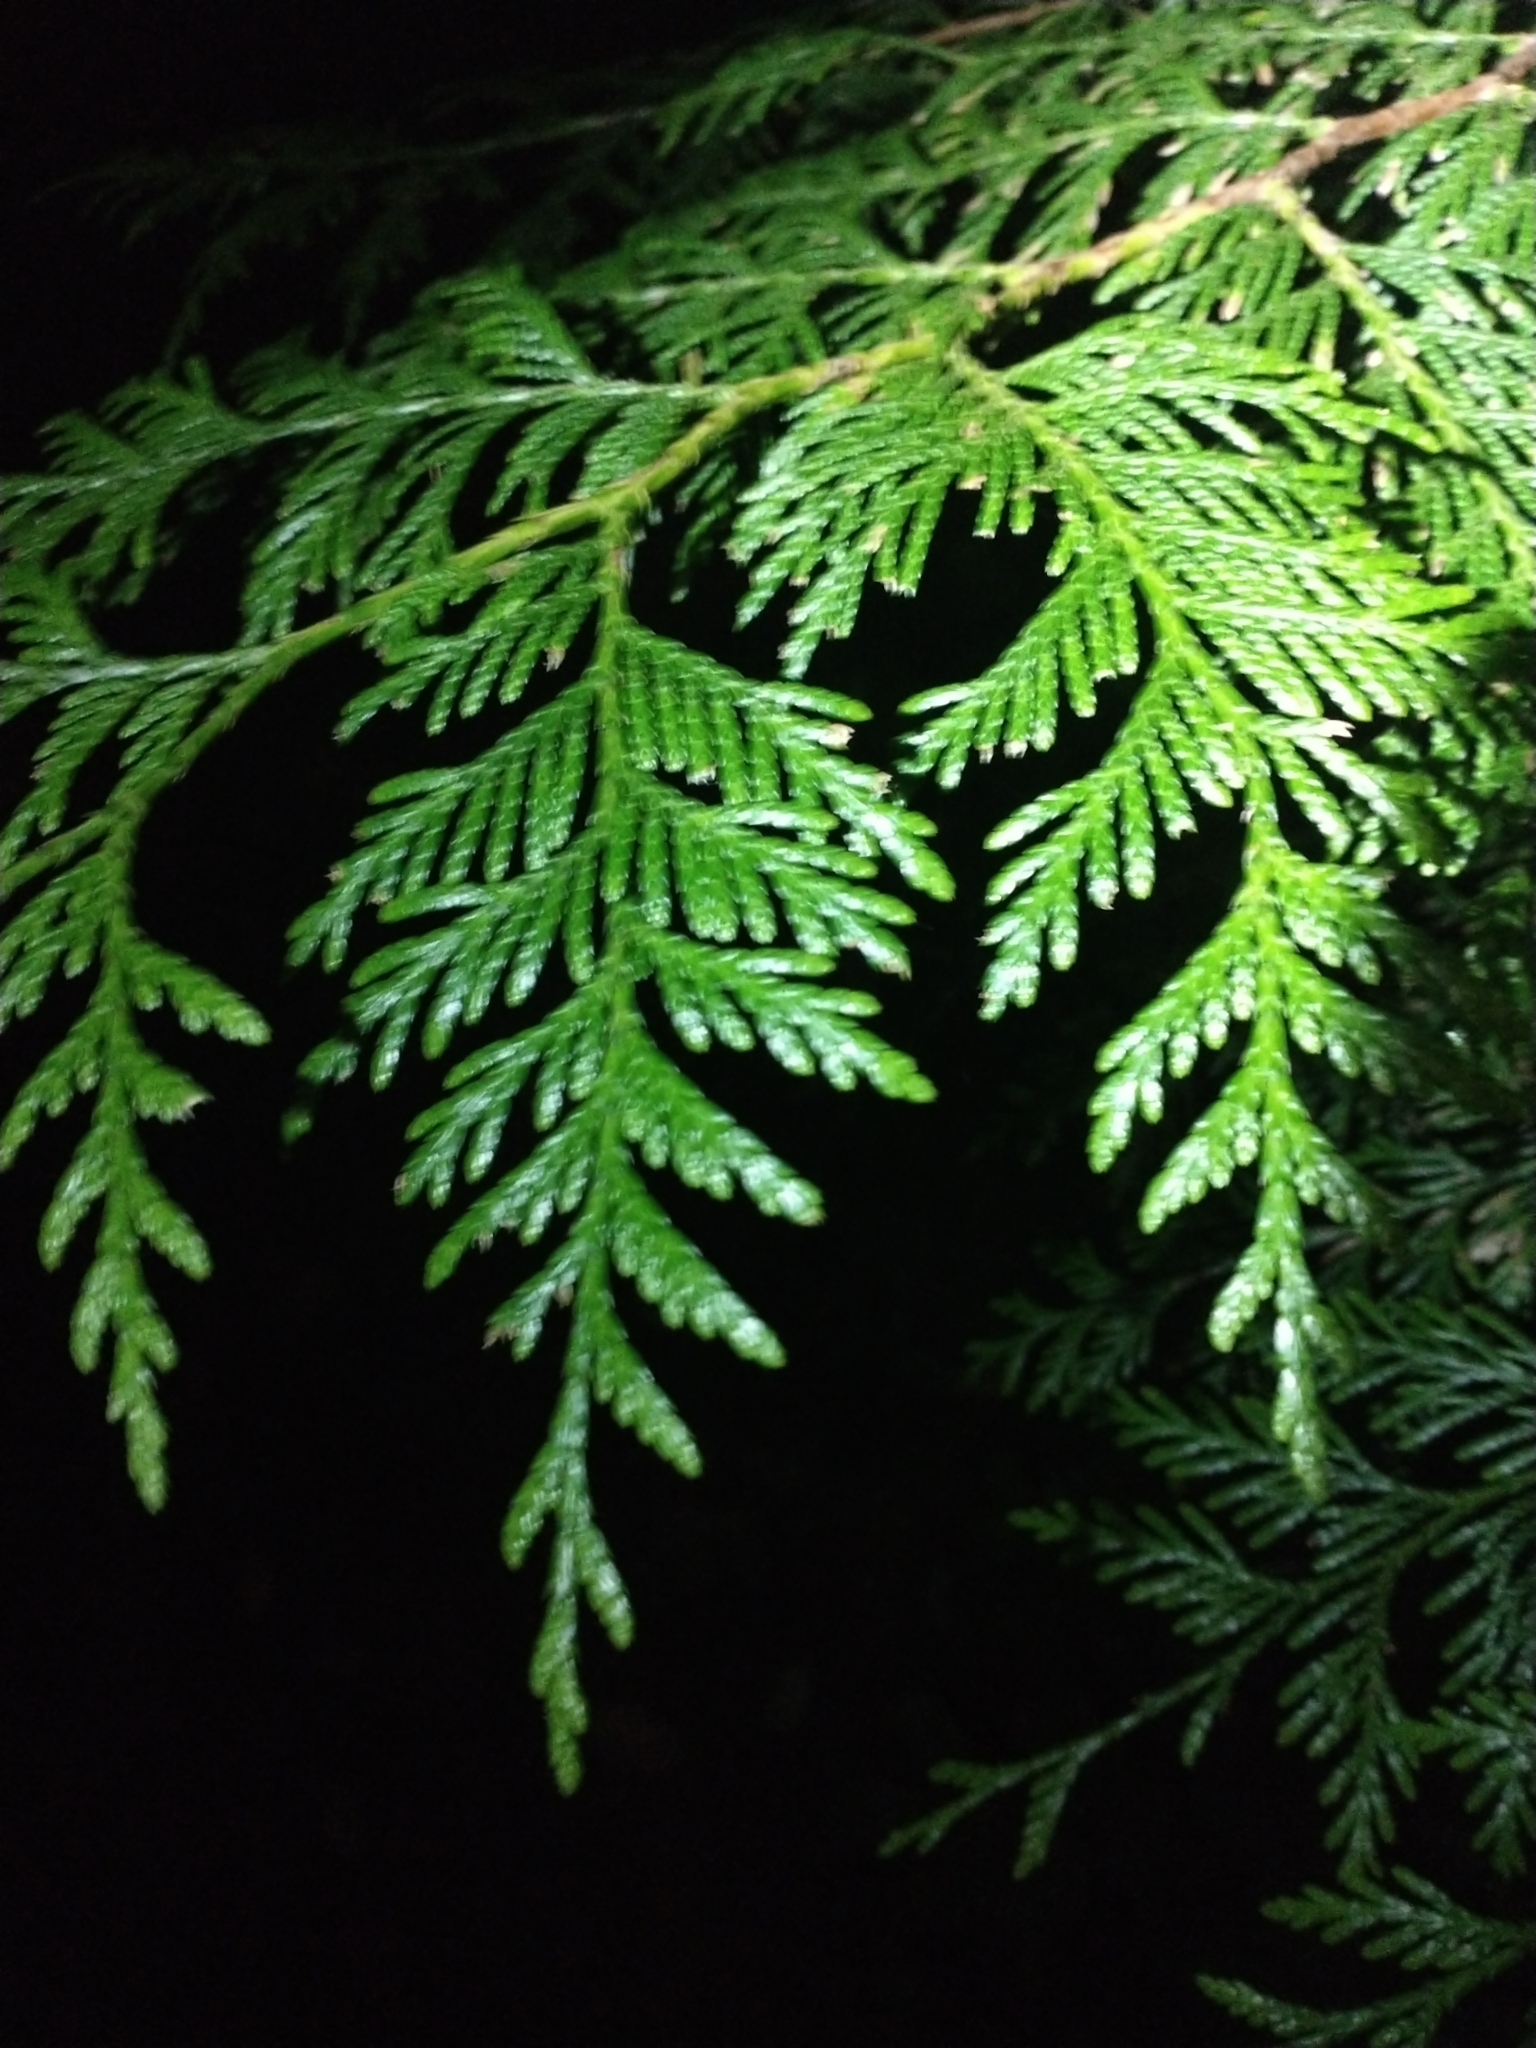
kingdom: Plantae
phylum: Tracheophyta
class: Pinopsida
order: Pinales
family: Cupressaceae
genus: Thuja
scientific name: Thuja plicata
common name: Western red-cedar
